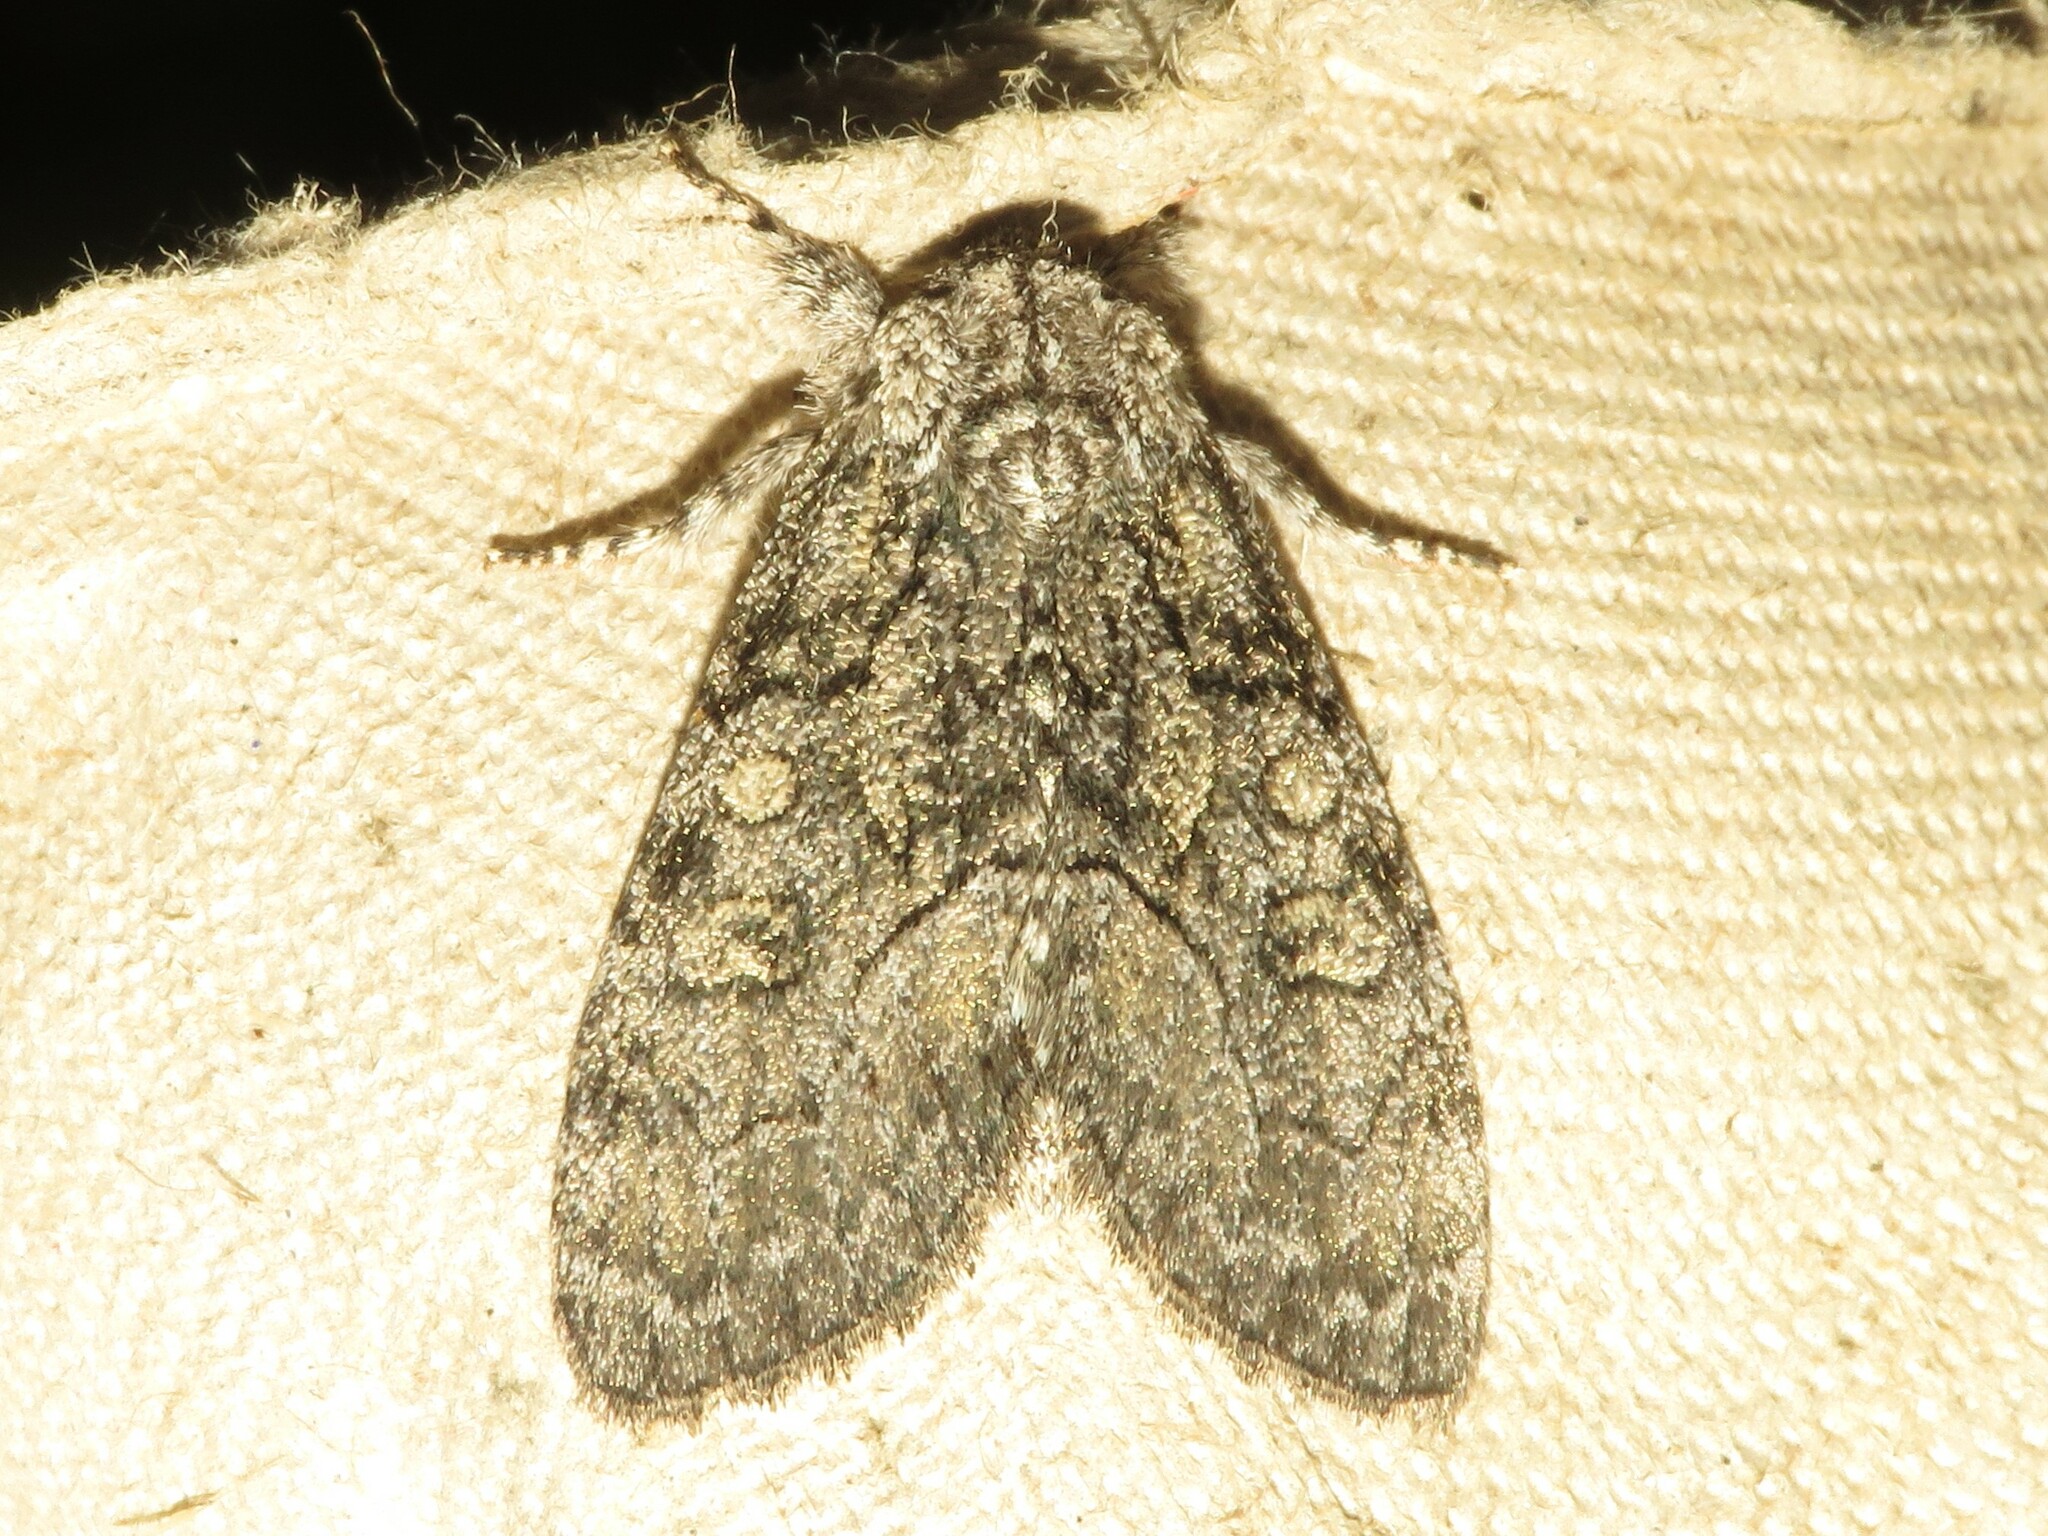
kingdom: Animalia
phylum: Arthropoda
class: Insecta
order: Lepidoptera
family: Noctuidae
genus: Raphia
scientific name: Raphia frater
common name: Brother
